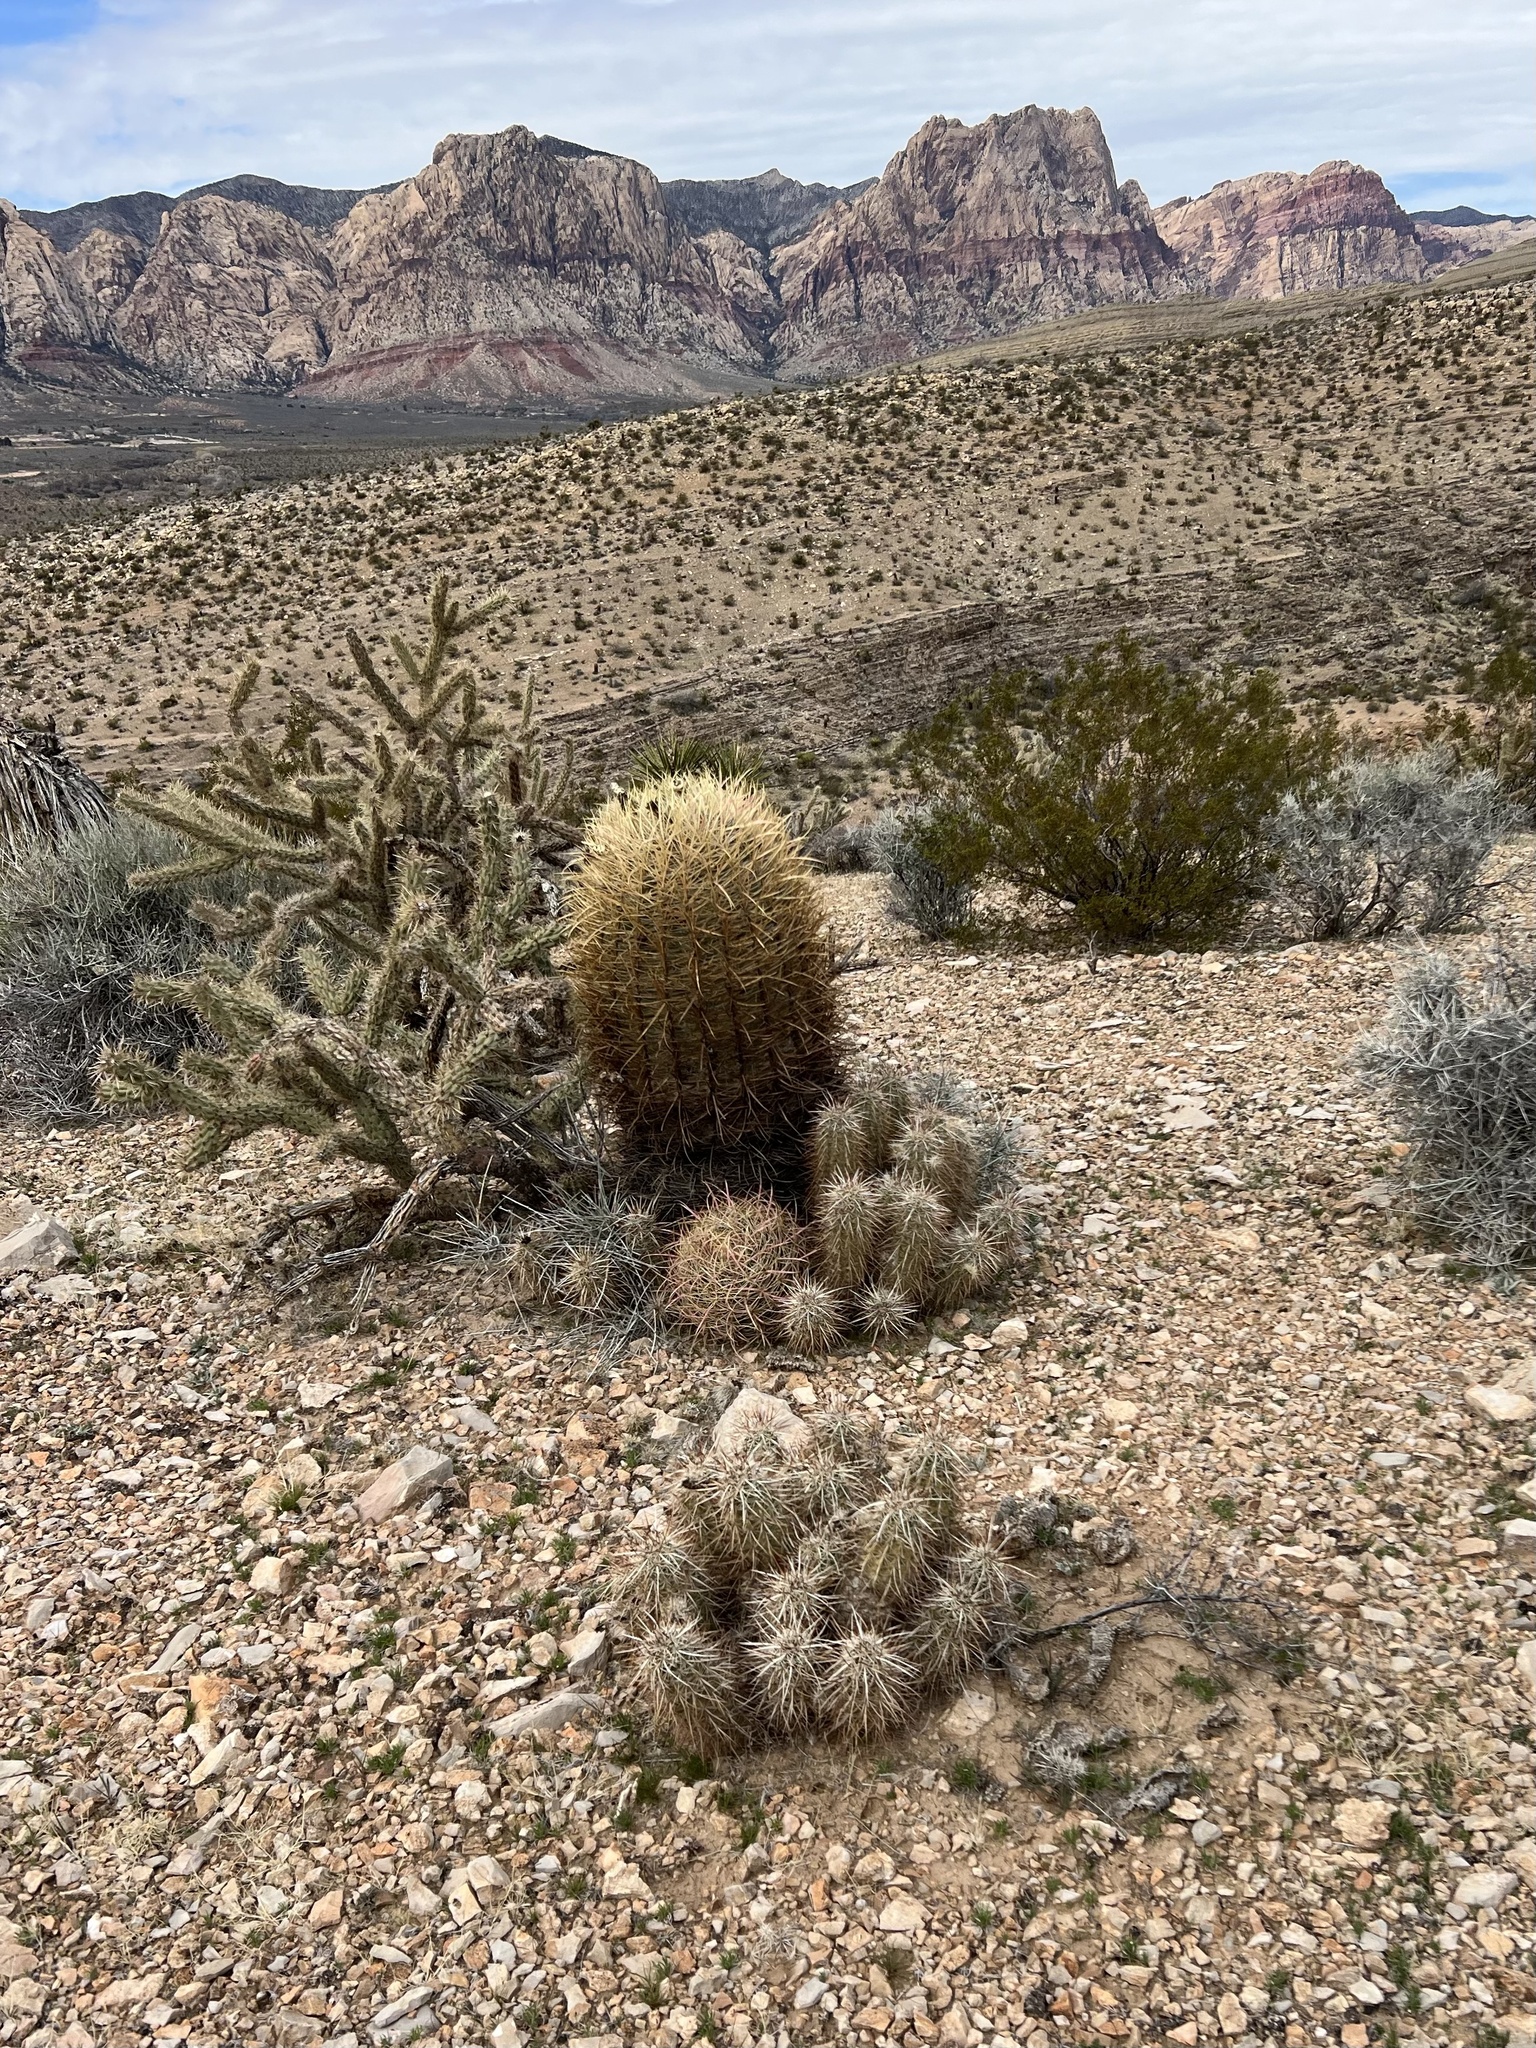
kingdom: Plantae
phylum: Tracheophyta
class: Magnoliopsida
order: Caryophyllales
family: Cactaceae
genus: Ferocactus
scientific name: Ferocactus cylindraceus
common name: California barrel cactus
